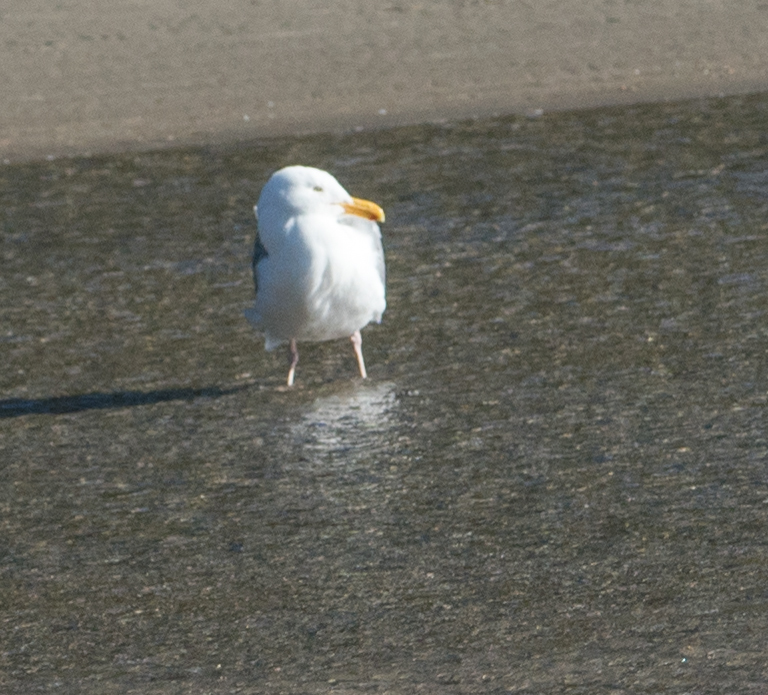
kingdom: Animalia
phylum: Chordata
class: Aves
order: Charadriiformes
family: Laridae
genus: Larus
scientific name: Larus occidentalis
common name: Western gull
